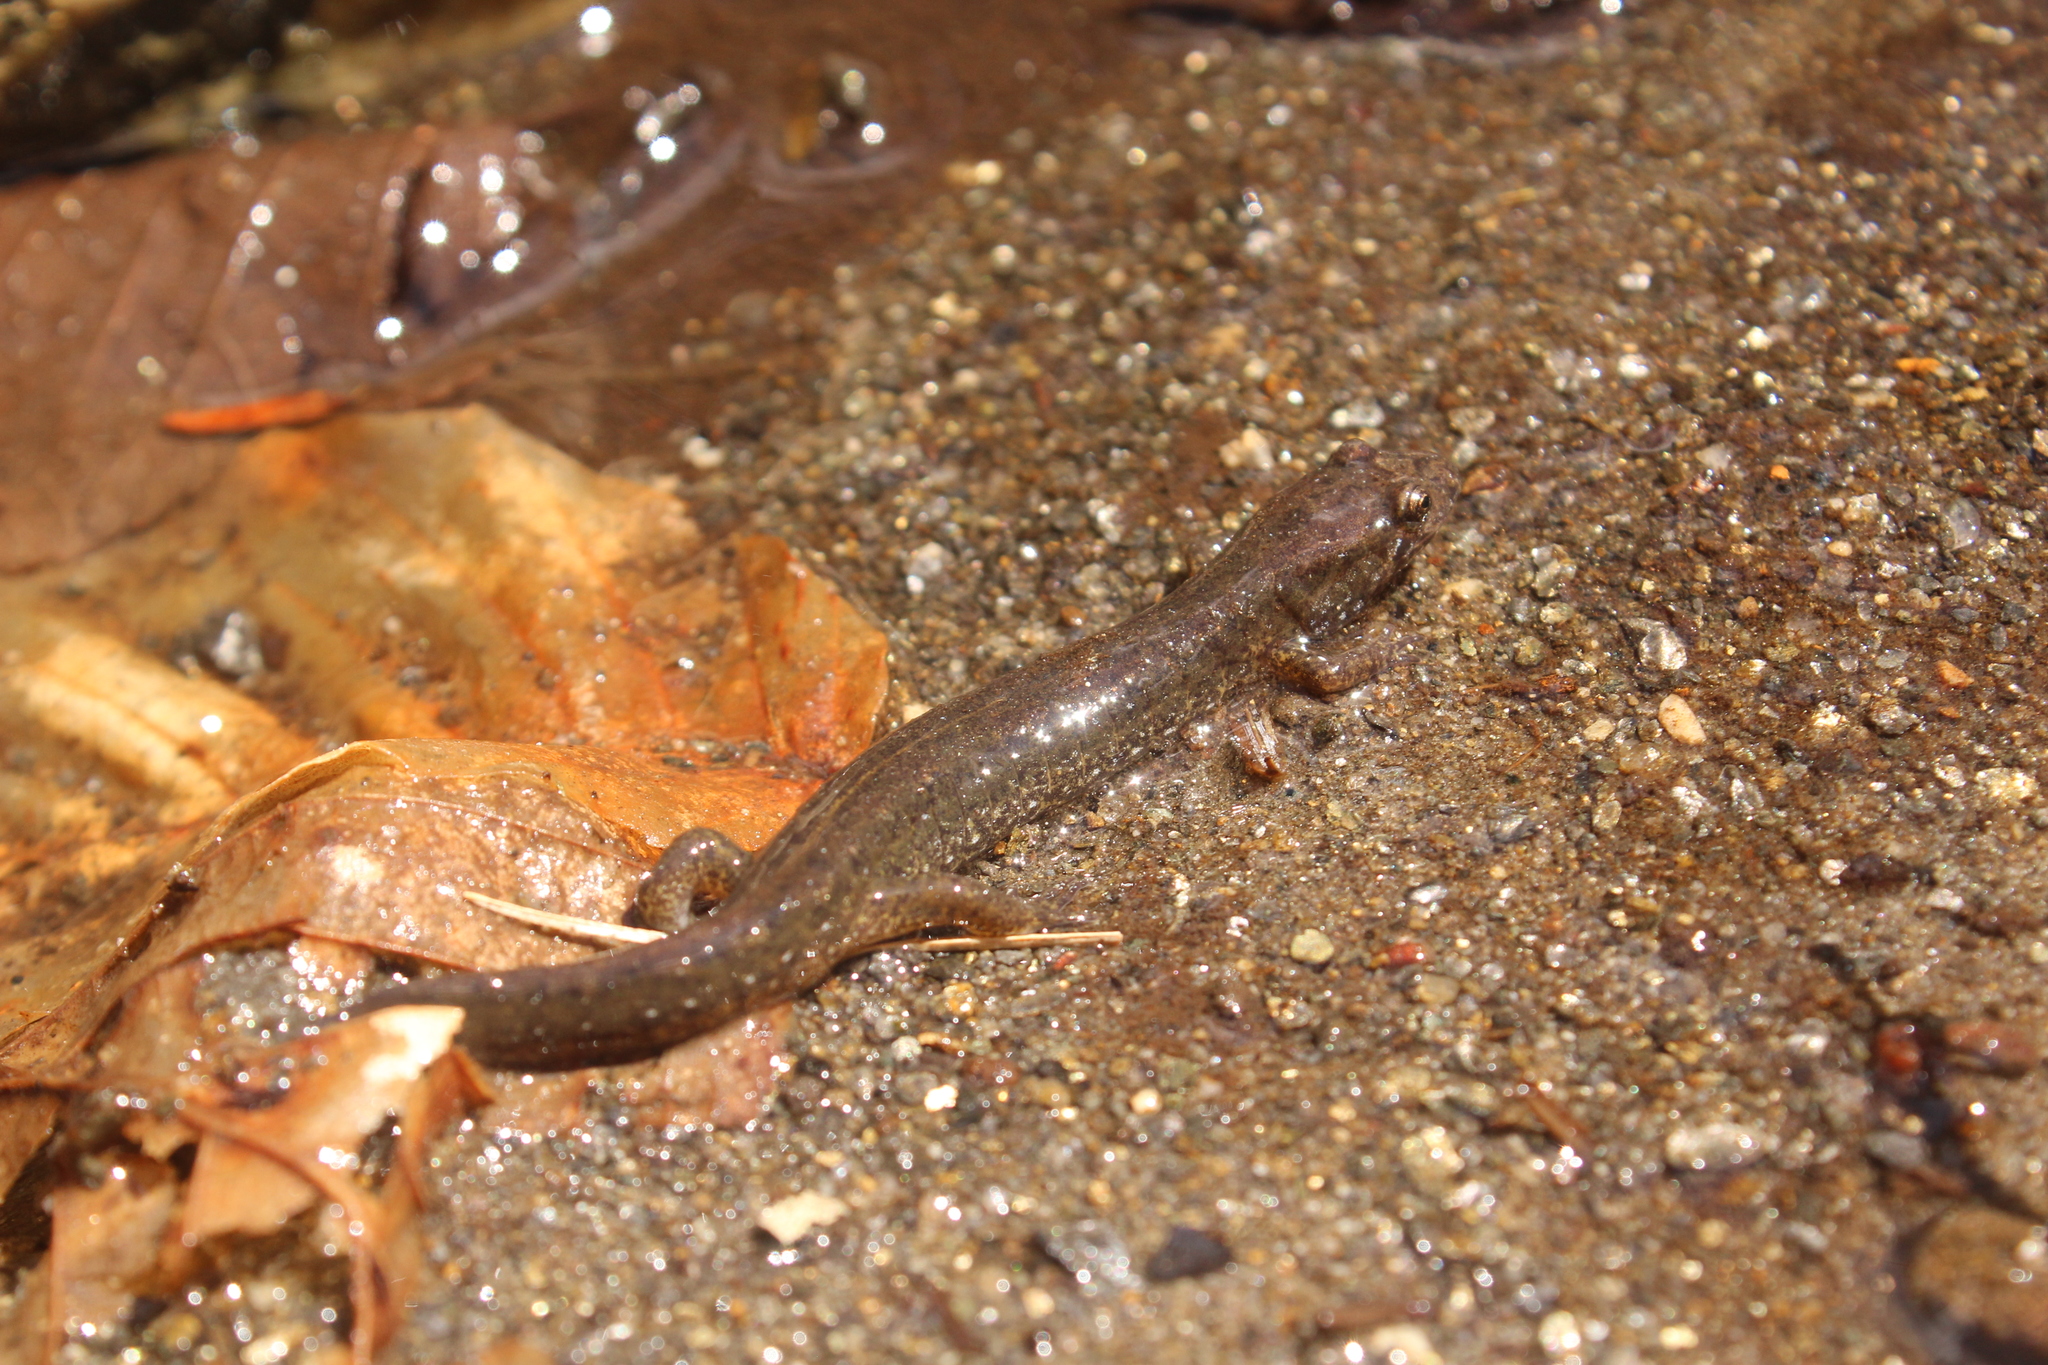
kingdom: Animalia
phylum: Chordata
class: Amphibia
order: Caudata
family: Plethodontidae
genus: Desmognathus
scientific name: Desmognathus fuscus
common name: Northern dusky salamander
